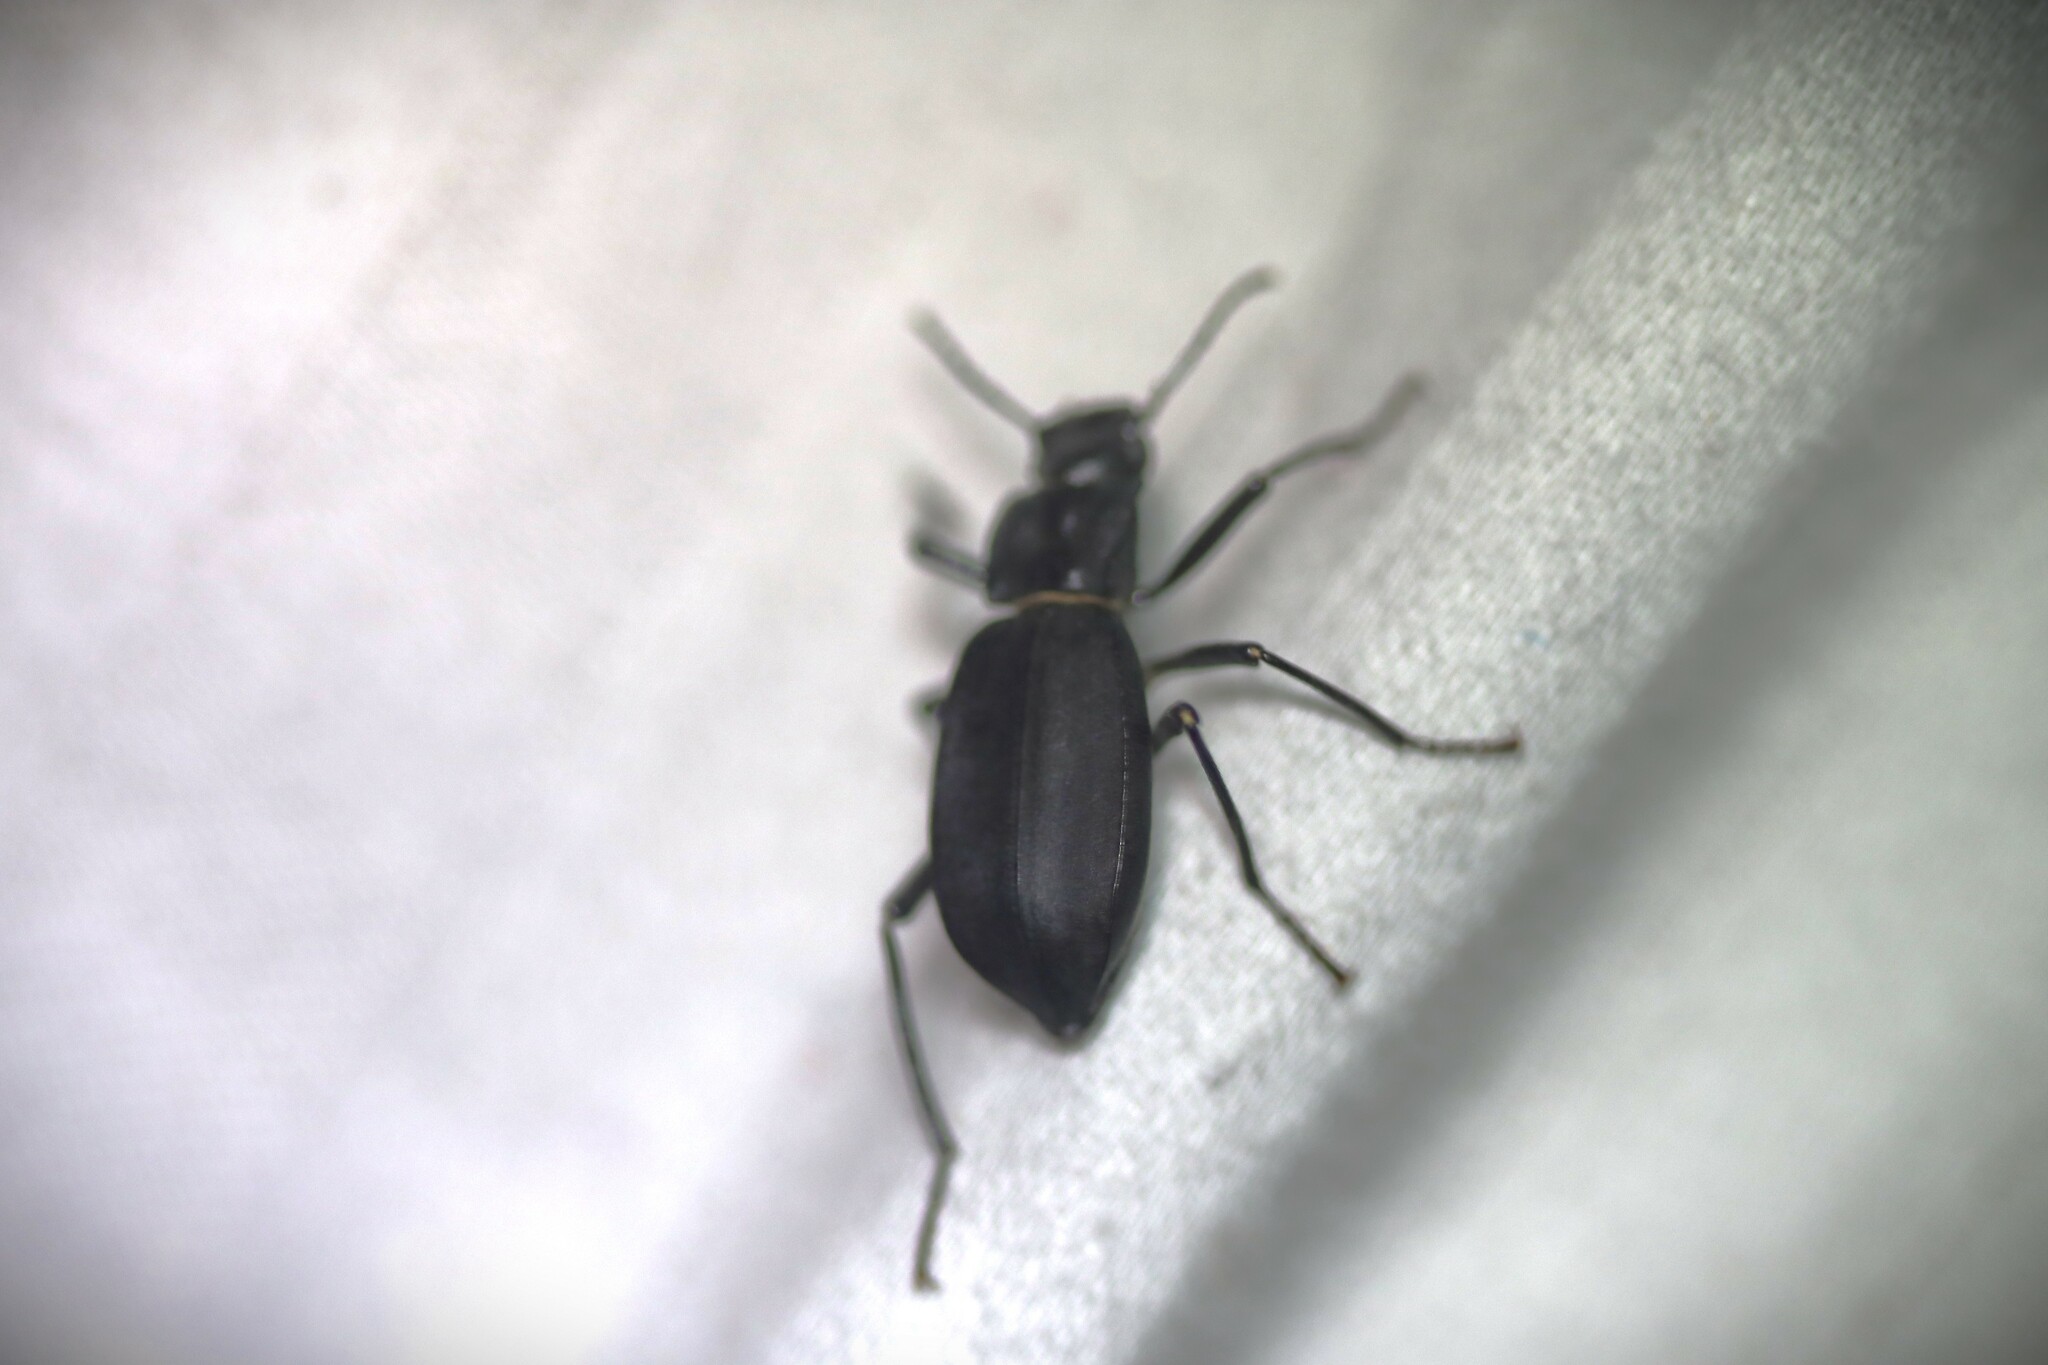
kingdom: Animalia
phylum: Arthropoda
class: Insecta
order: Coleoptera
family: Tenebrionidae
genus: Solskyia
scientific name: Solskyia
